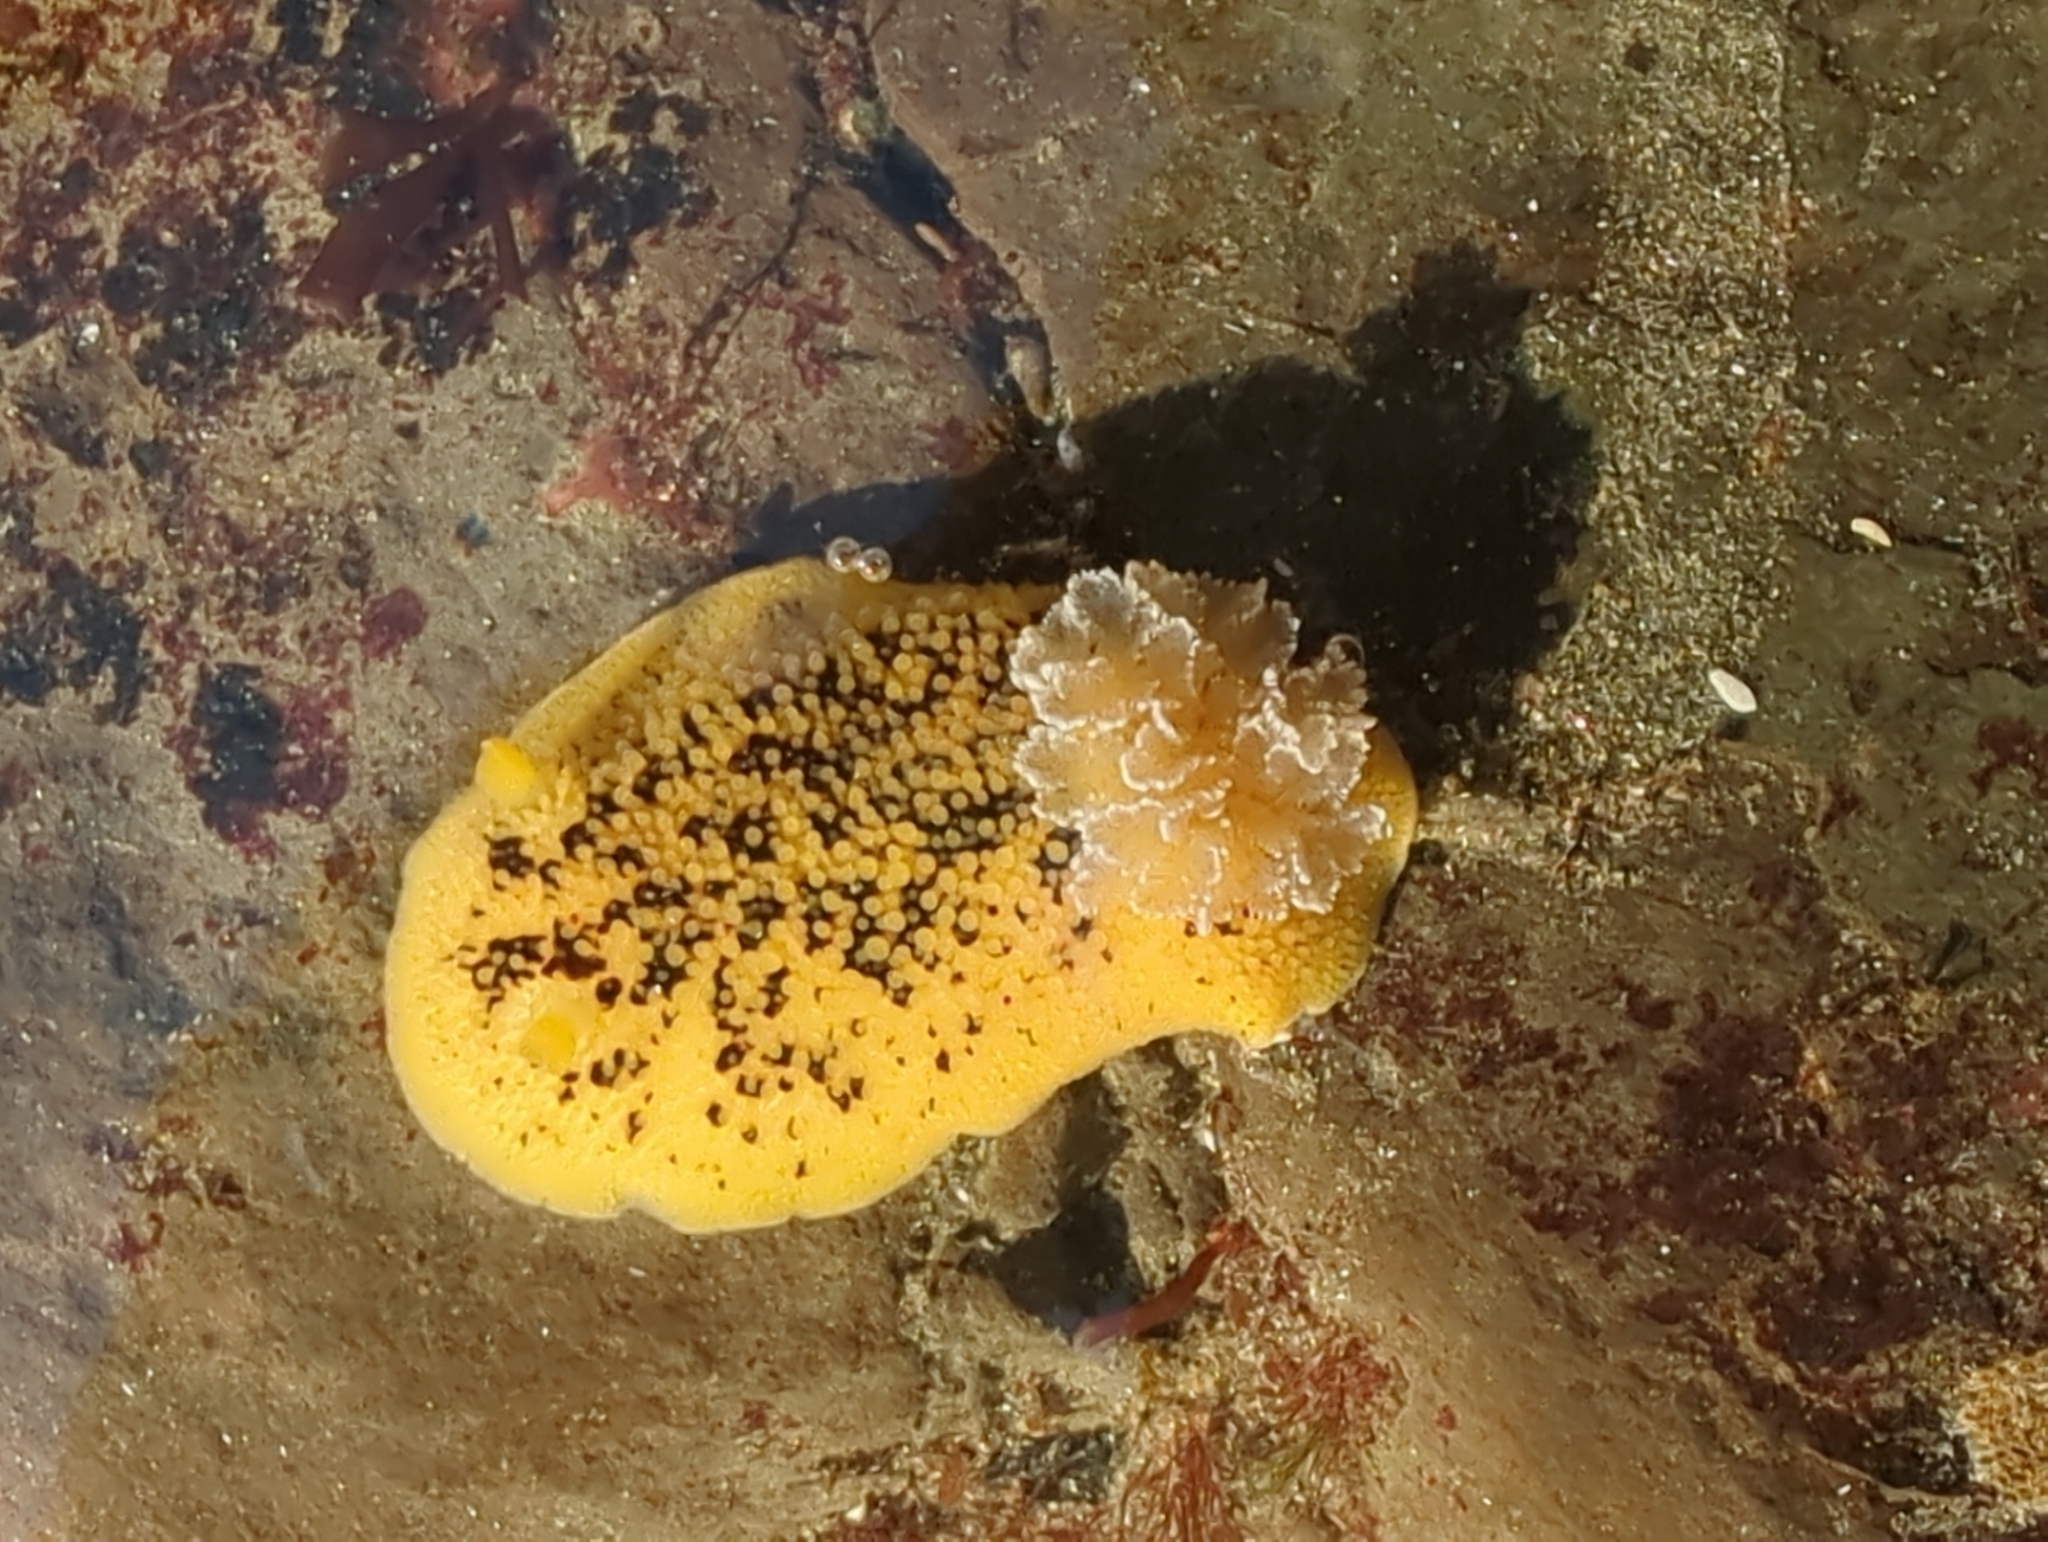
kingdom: Animalia
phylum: Mollusca
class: Gastropoda
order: Nudibranchia
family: Discodorididae
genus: Peltodoris
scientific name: Peltodoris nobilis
